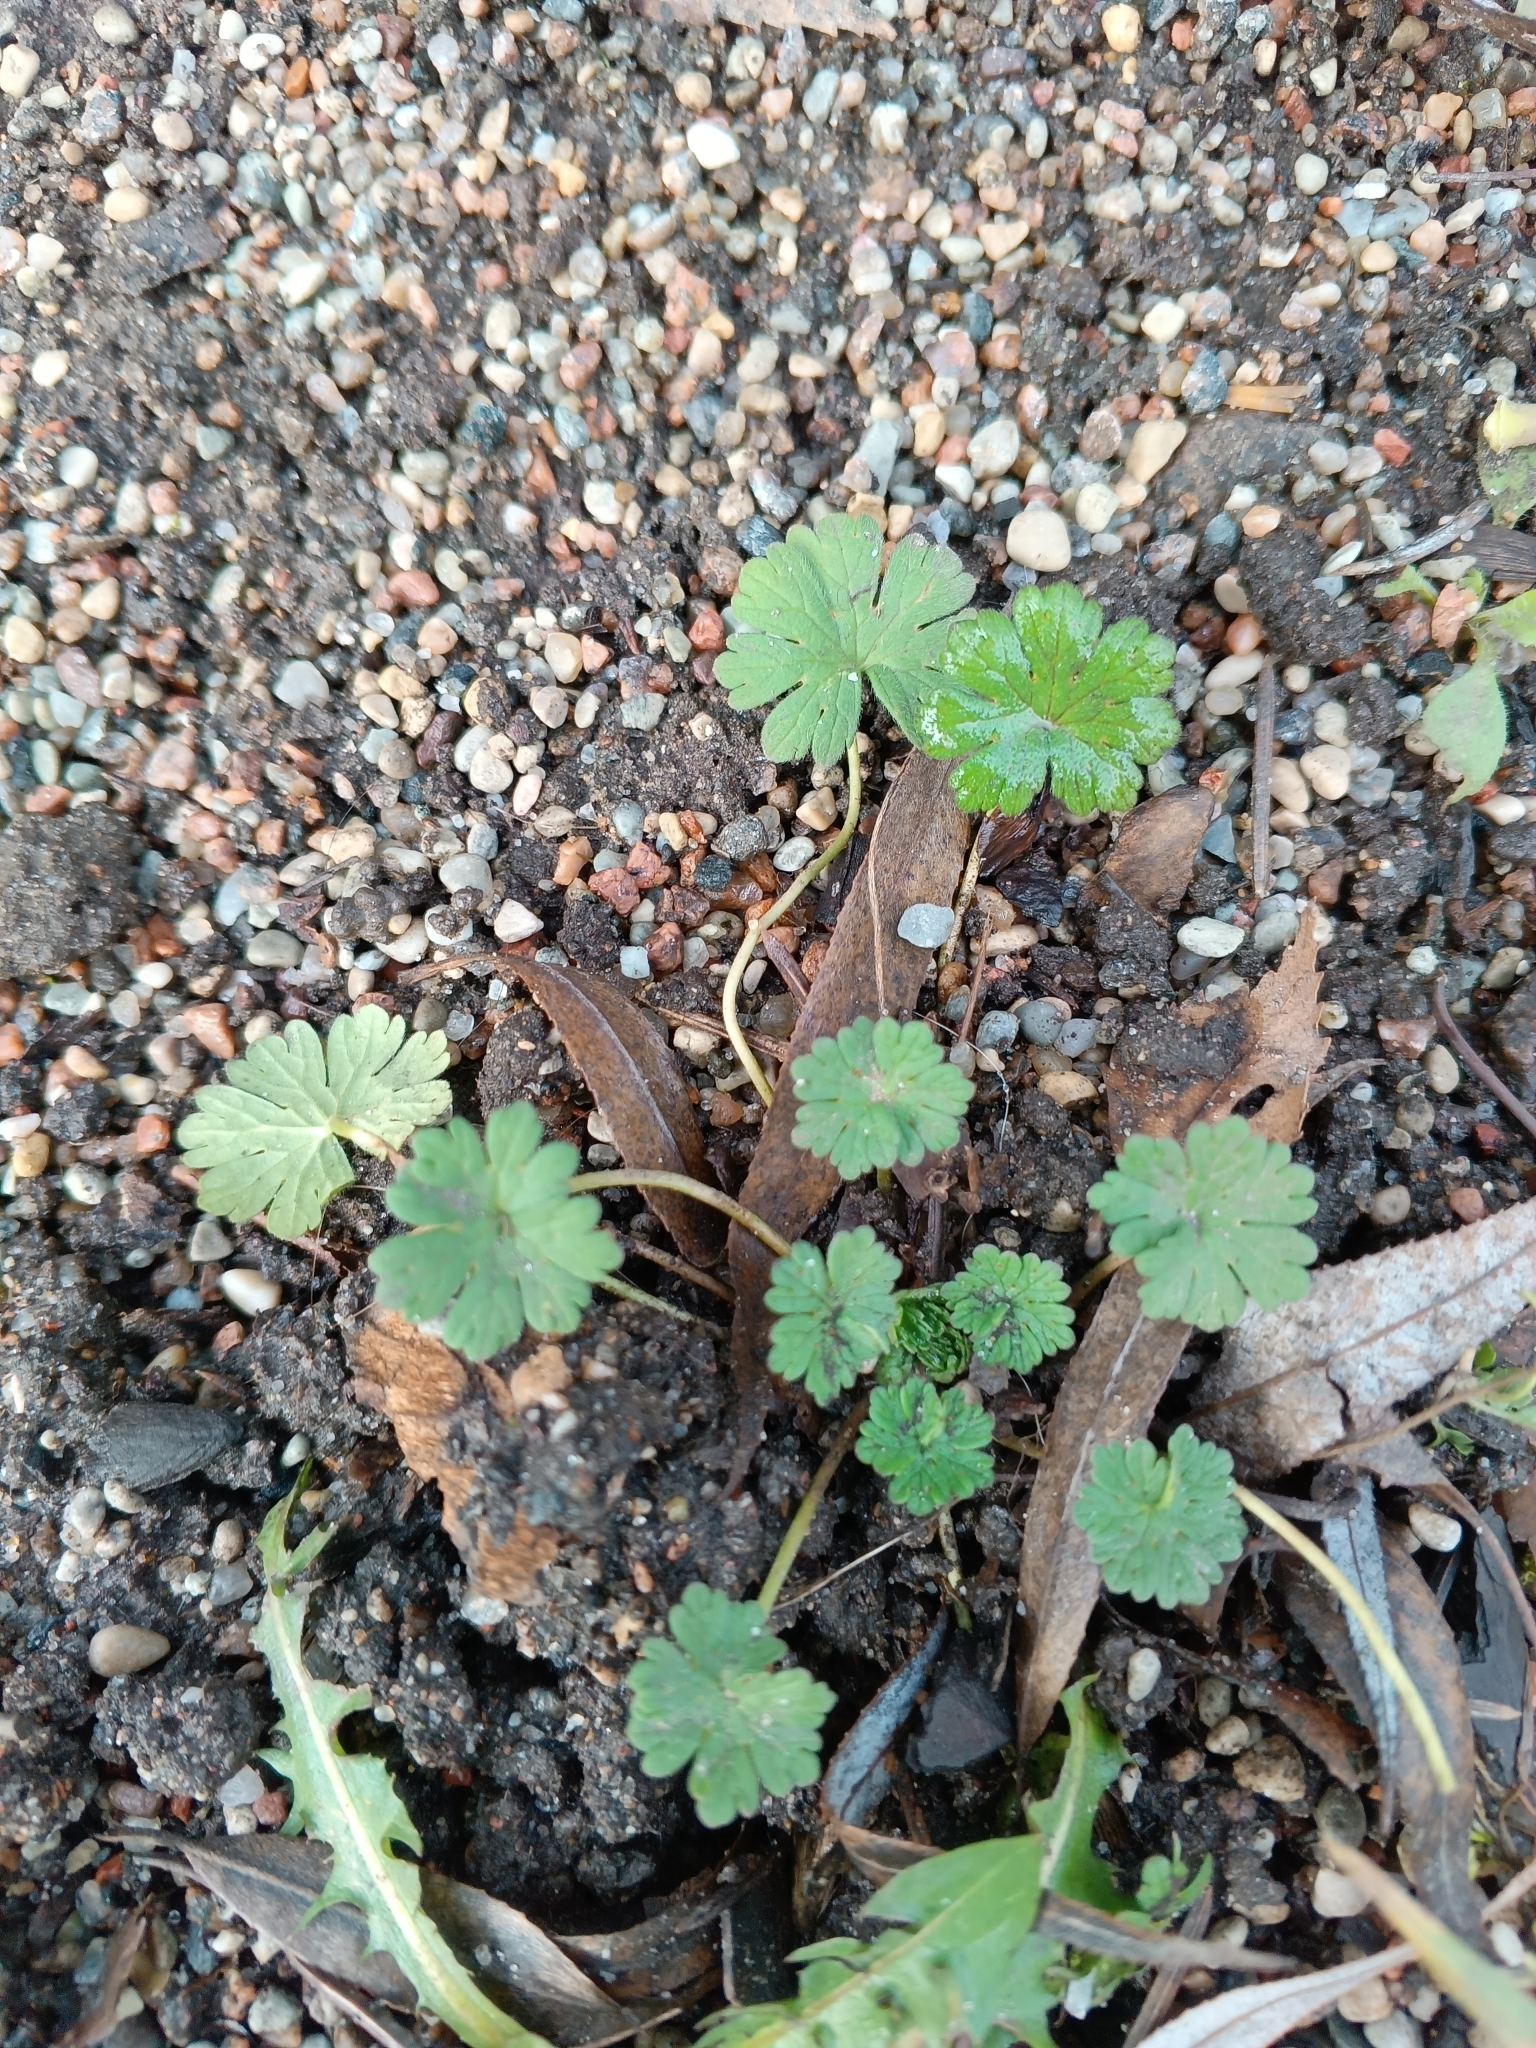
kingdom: Plantae
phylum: Tracheophyta
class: Magnoliopsida
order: Geraniales
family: Geraniaceae
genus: Geranium
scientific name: Geranium pusillum
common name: Small geranium
